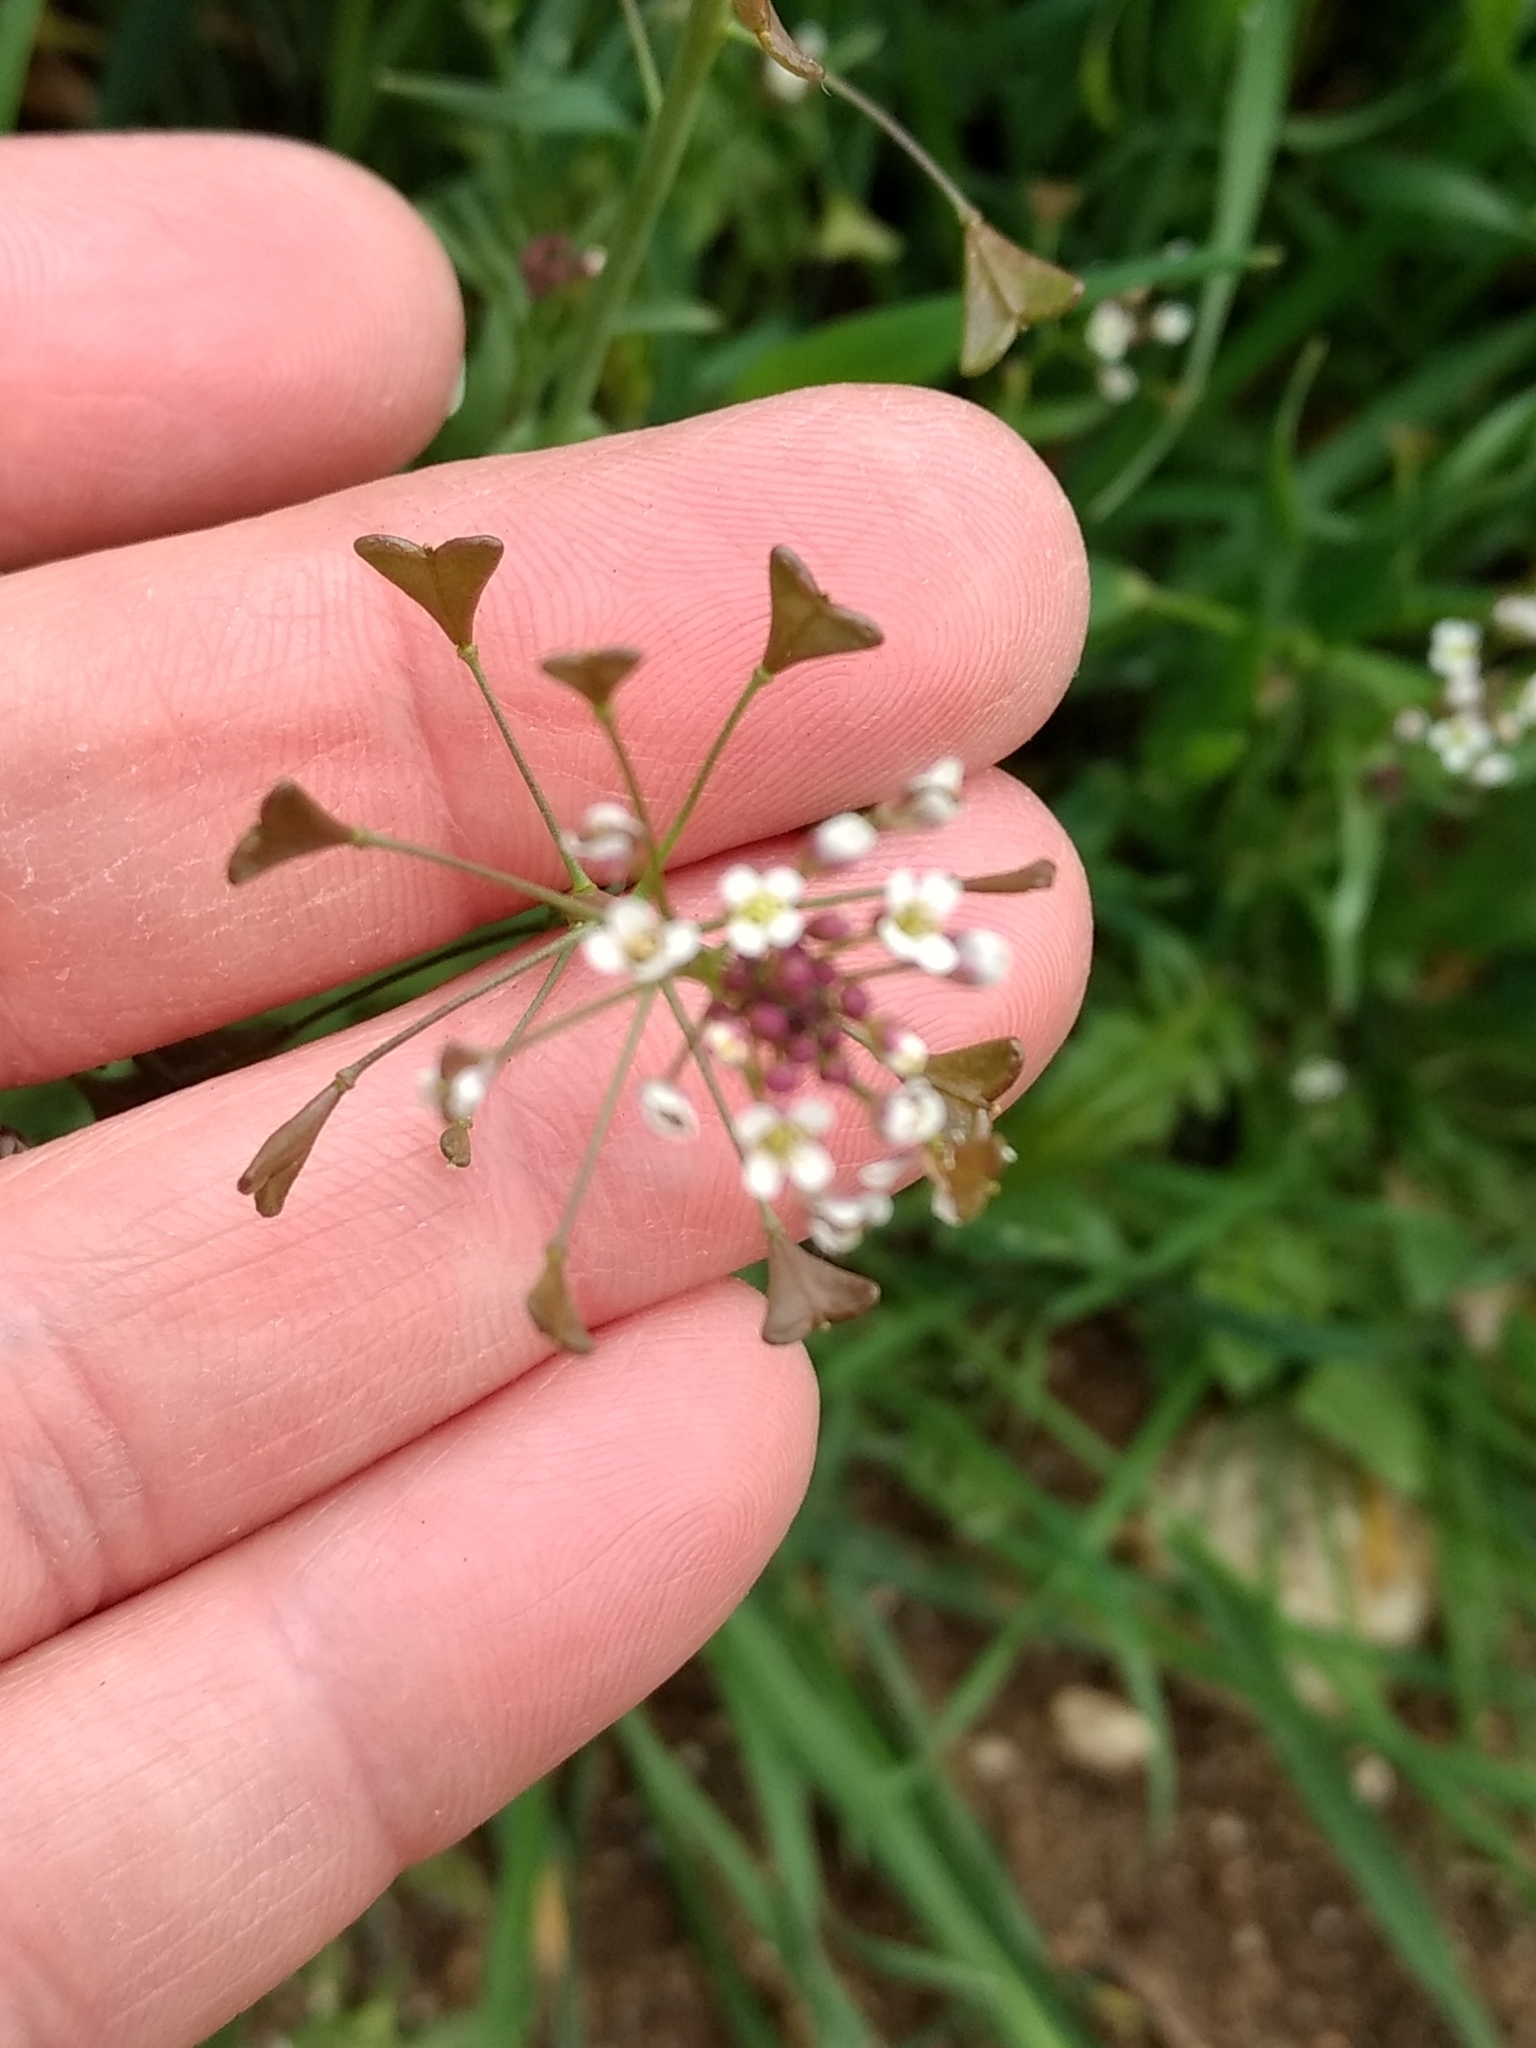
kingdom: Plantae
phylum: Tracheophyta
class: Magnoliopsida
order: Brassicales
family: Brassicaceae
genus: Capsella
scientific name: Capsella bursa-pastoris
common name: Shepherd's purse
